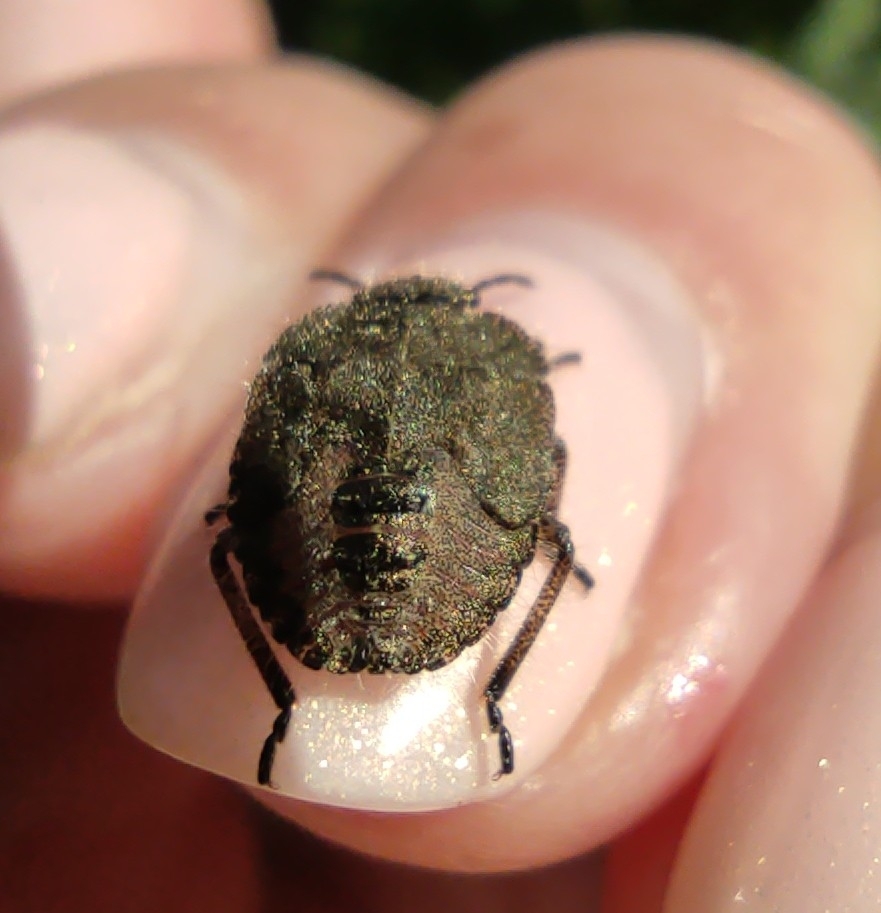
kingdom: Animalia
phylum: Arthropoda
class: Insecta
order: Hemiptera
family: Pentatomidae
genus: Dolycoris
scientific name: Dolycoris baccarum
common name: Sloe bug
